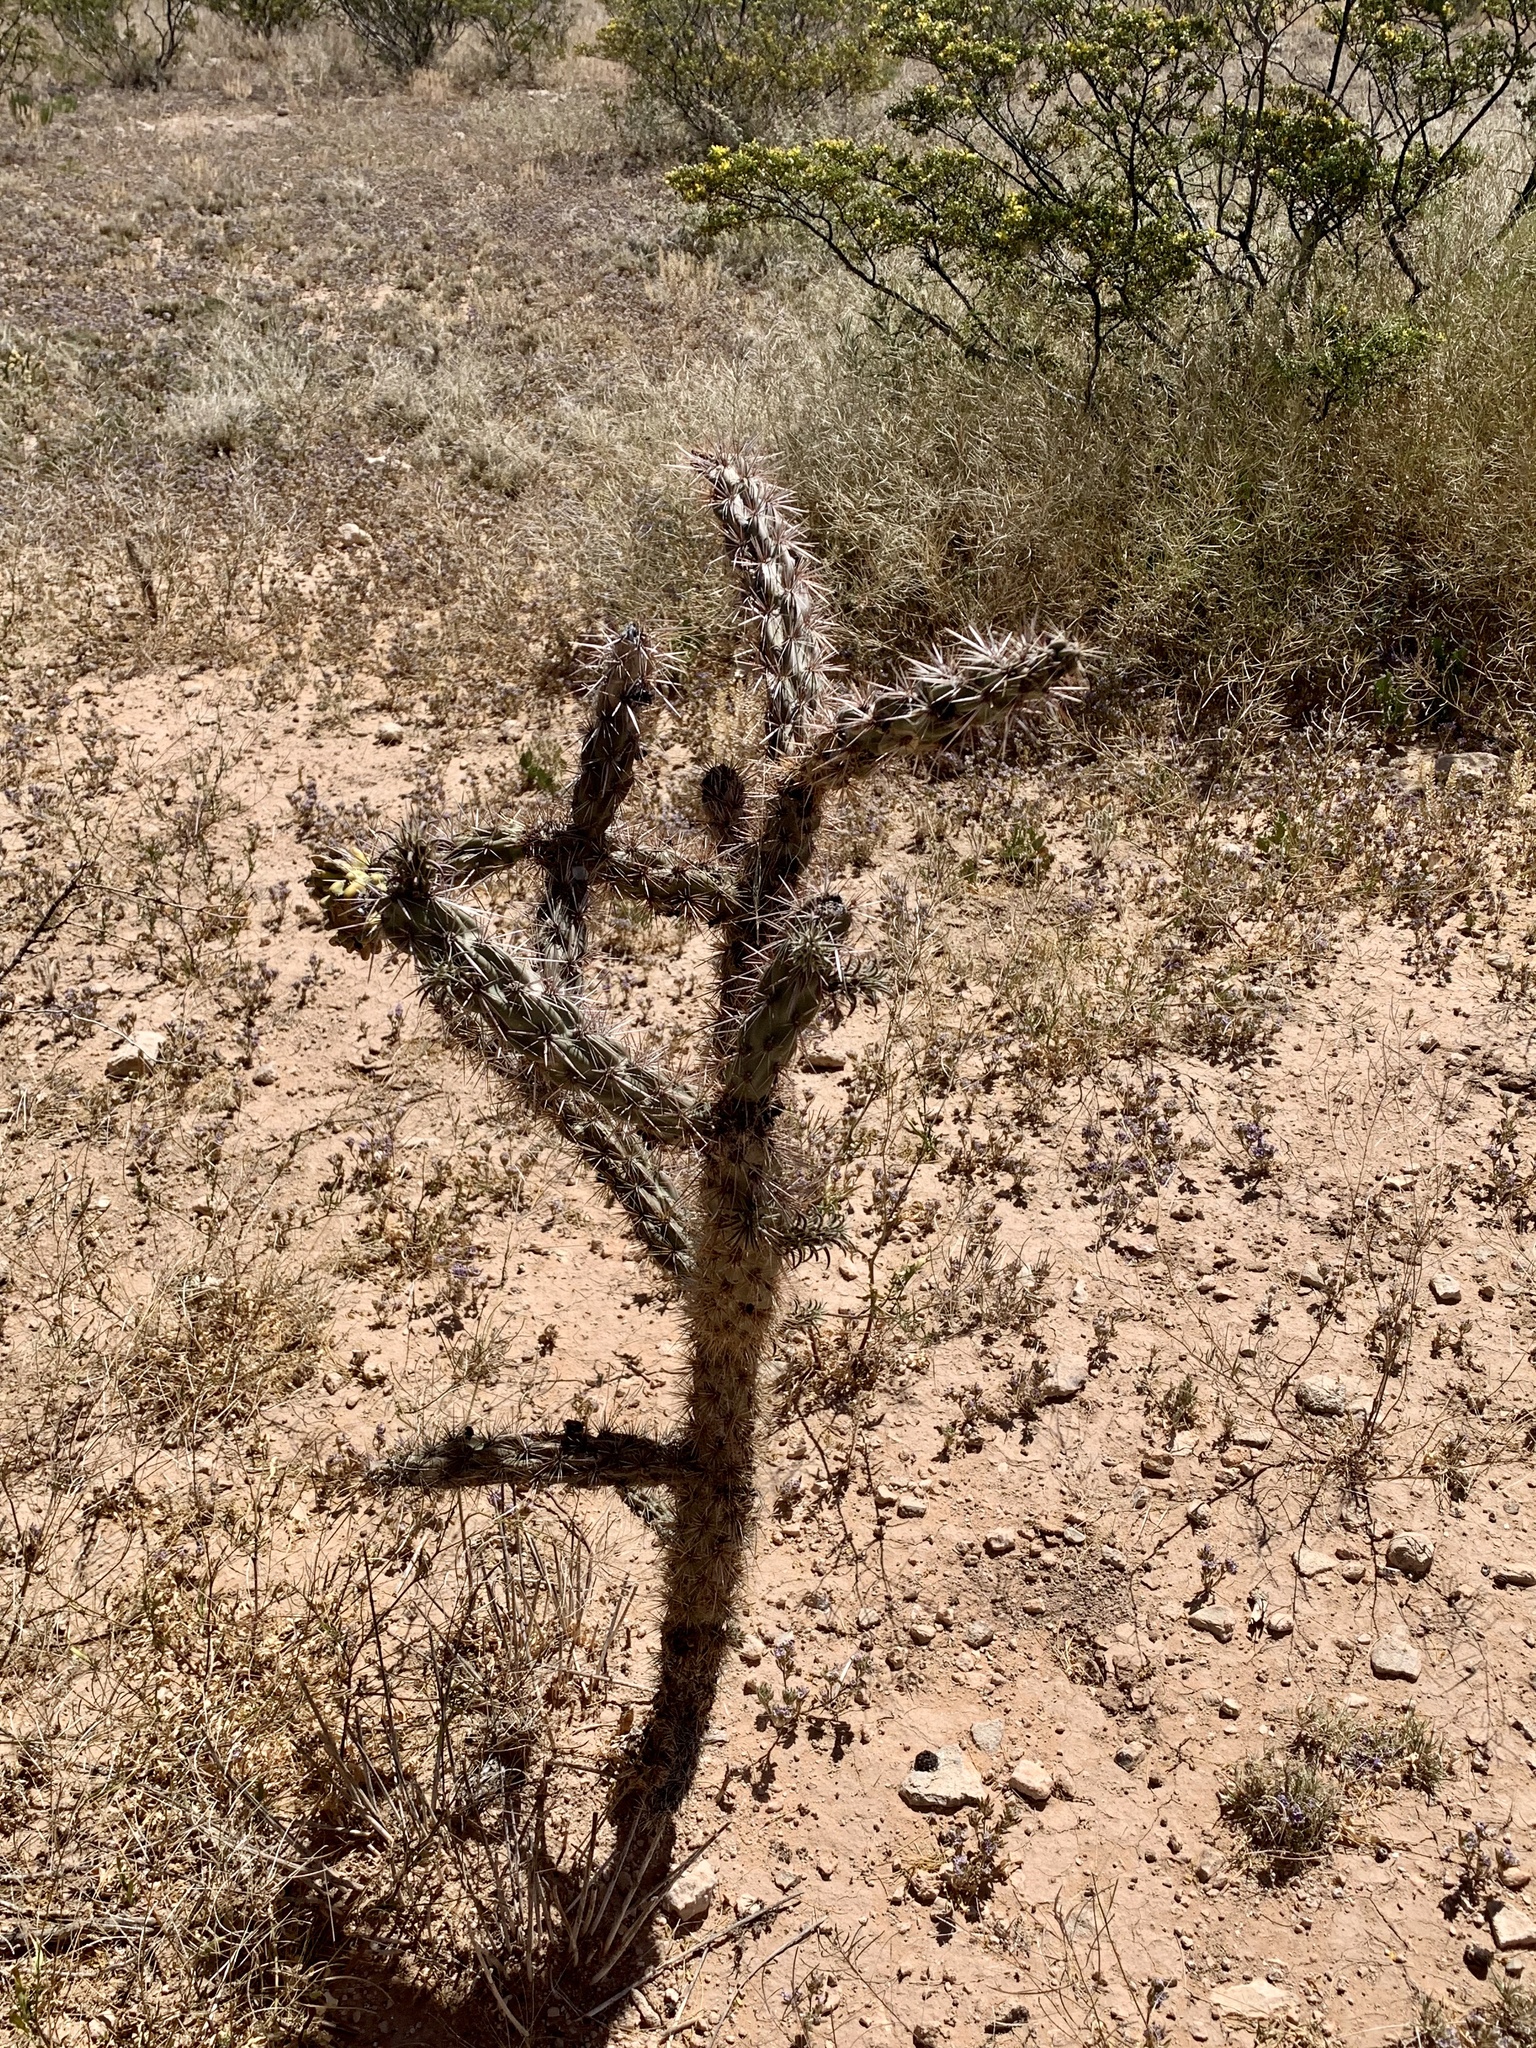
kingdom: Plantae
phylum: Tracheophyta
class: Magnoliopsida
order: Caryophyllales
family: Cactaceae
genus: Cylindropuntia
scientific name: Cylindropuntia imbricata
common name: Candelabrum cactus
